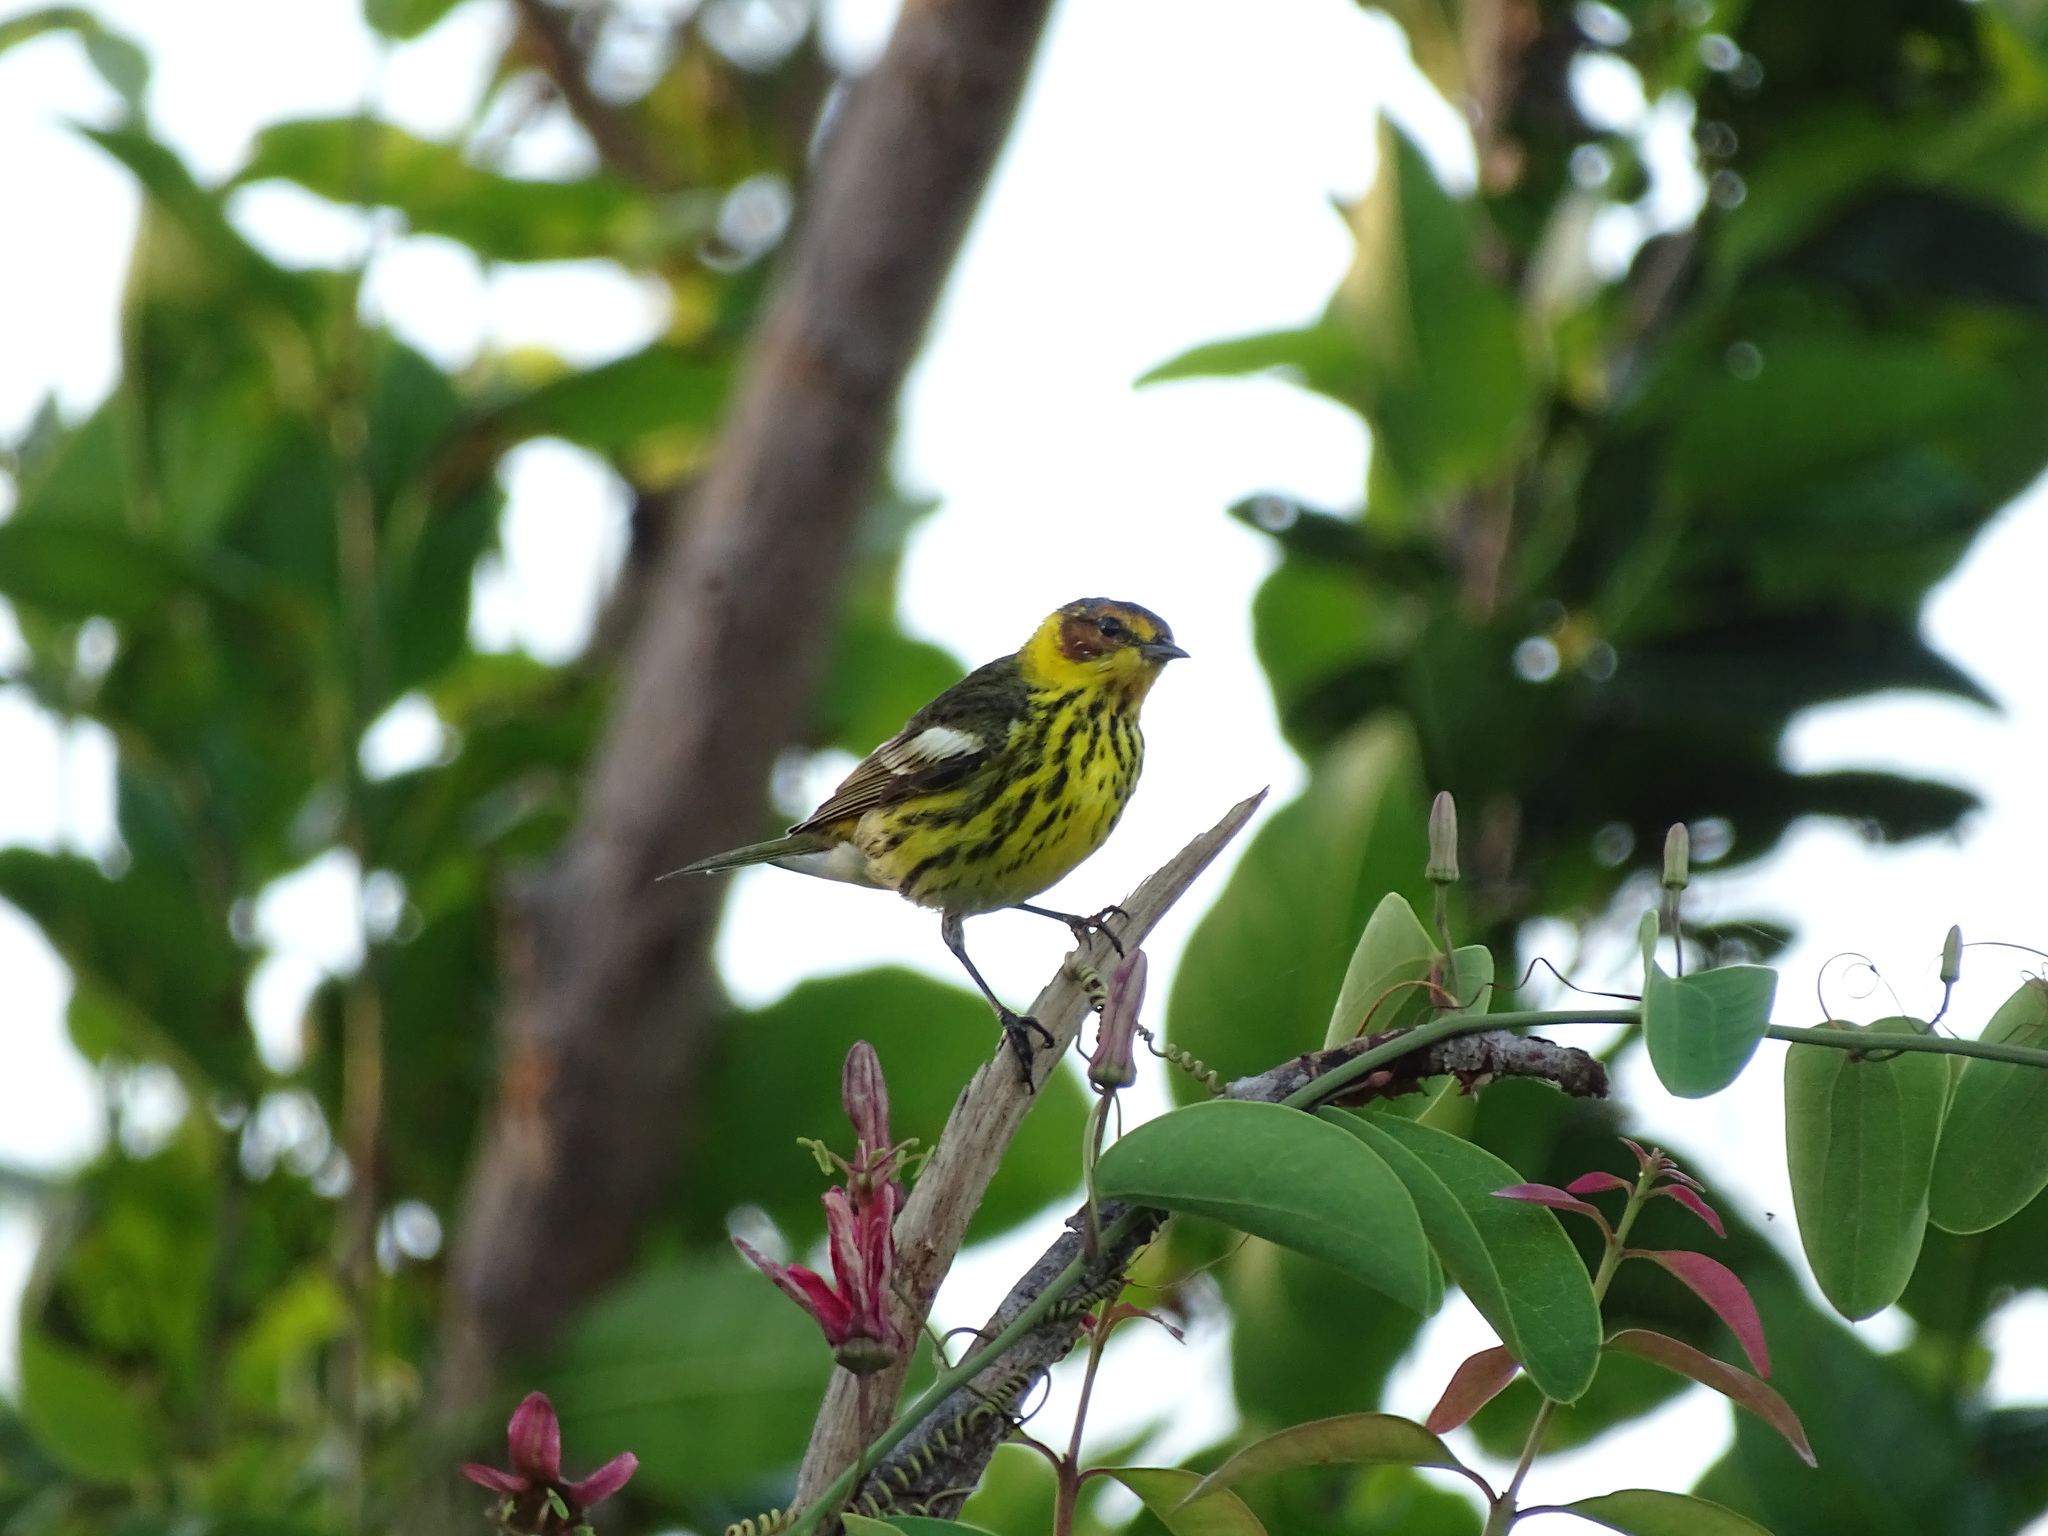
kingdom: Animalia
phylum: Chordata
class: Aves
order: Passeriformes
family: Parulidae
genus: Setophaga
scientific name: Setophaga tigrina
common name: Cape may warbler
